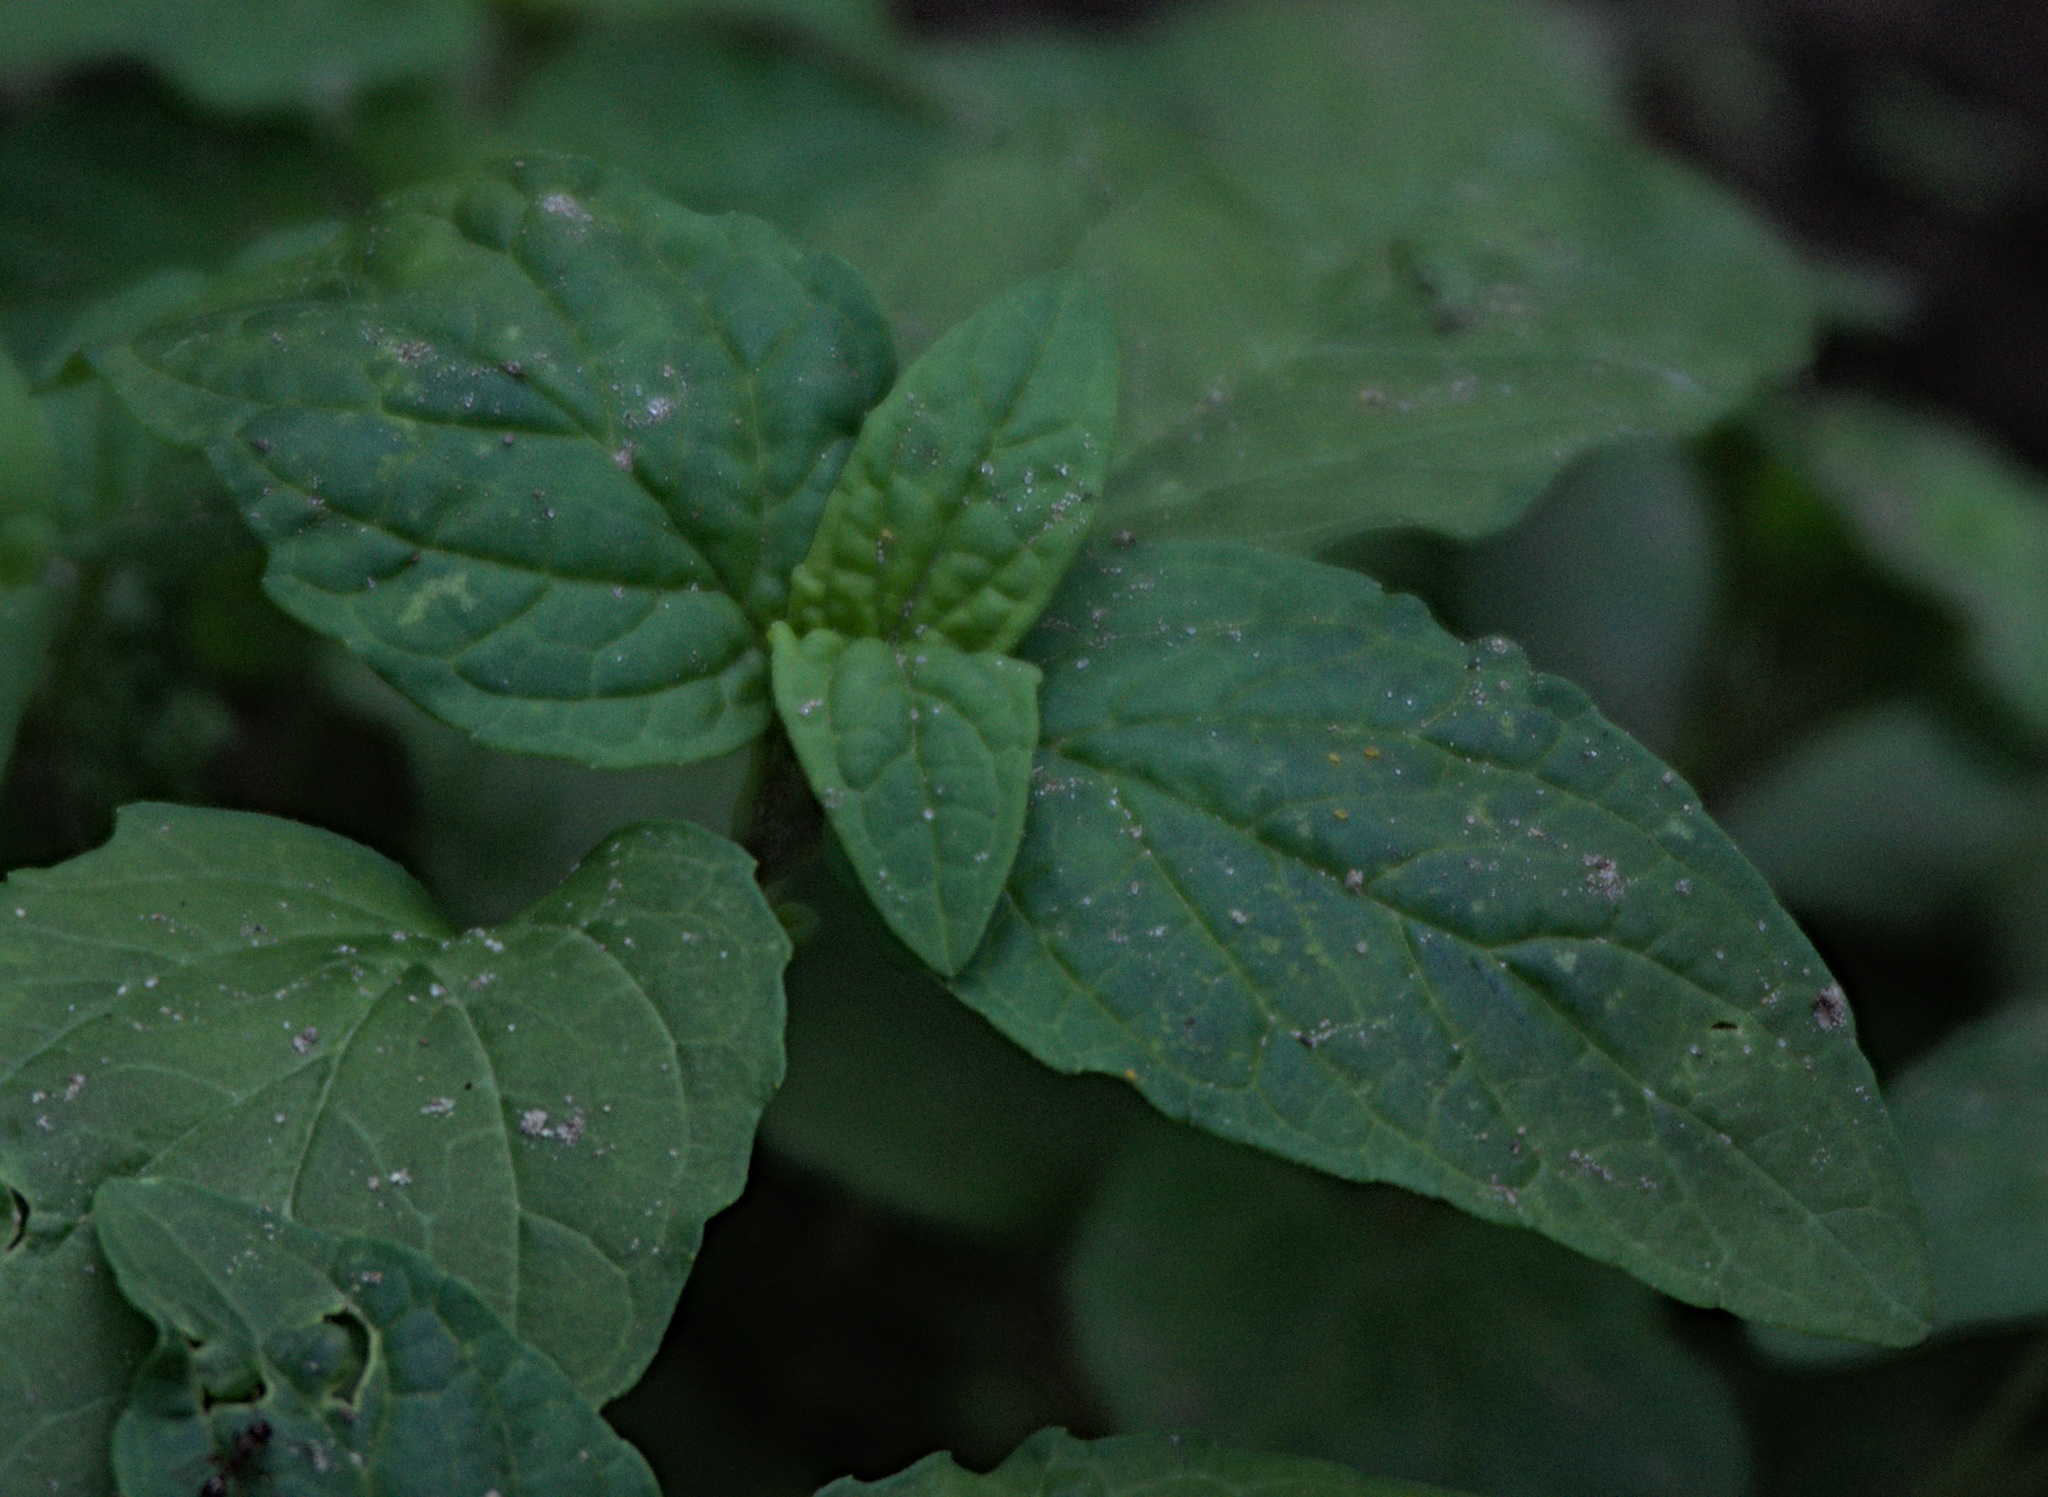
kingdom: Plantae
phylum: Tracheophyta
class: Magnoliopsida
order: Lamiales
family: Lamiaceae
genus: Prunella
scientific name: Prunella vulgaris
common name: Heal-all
